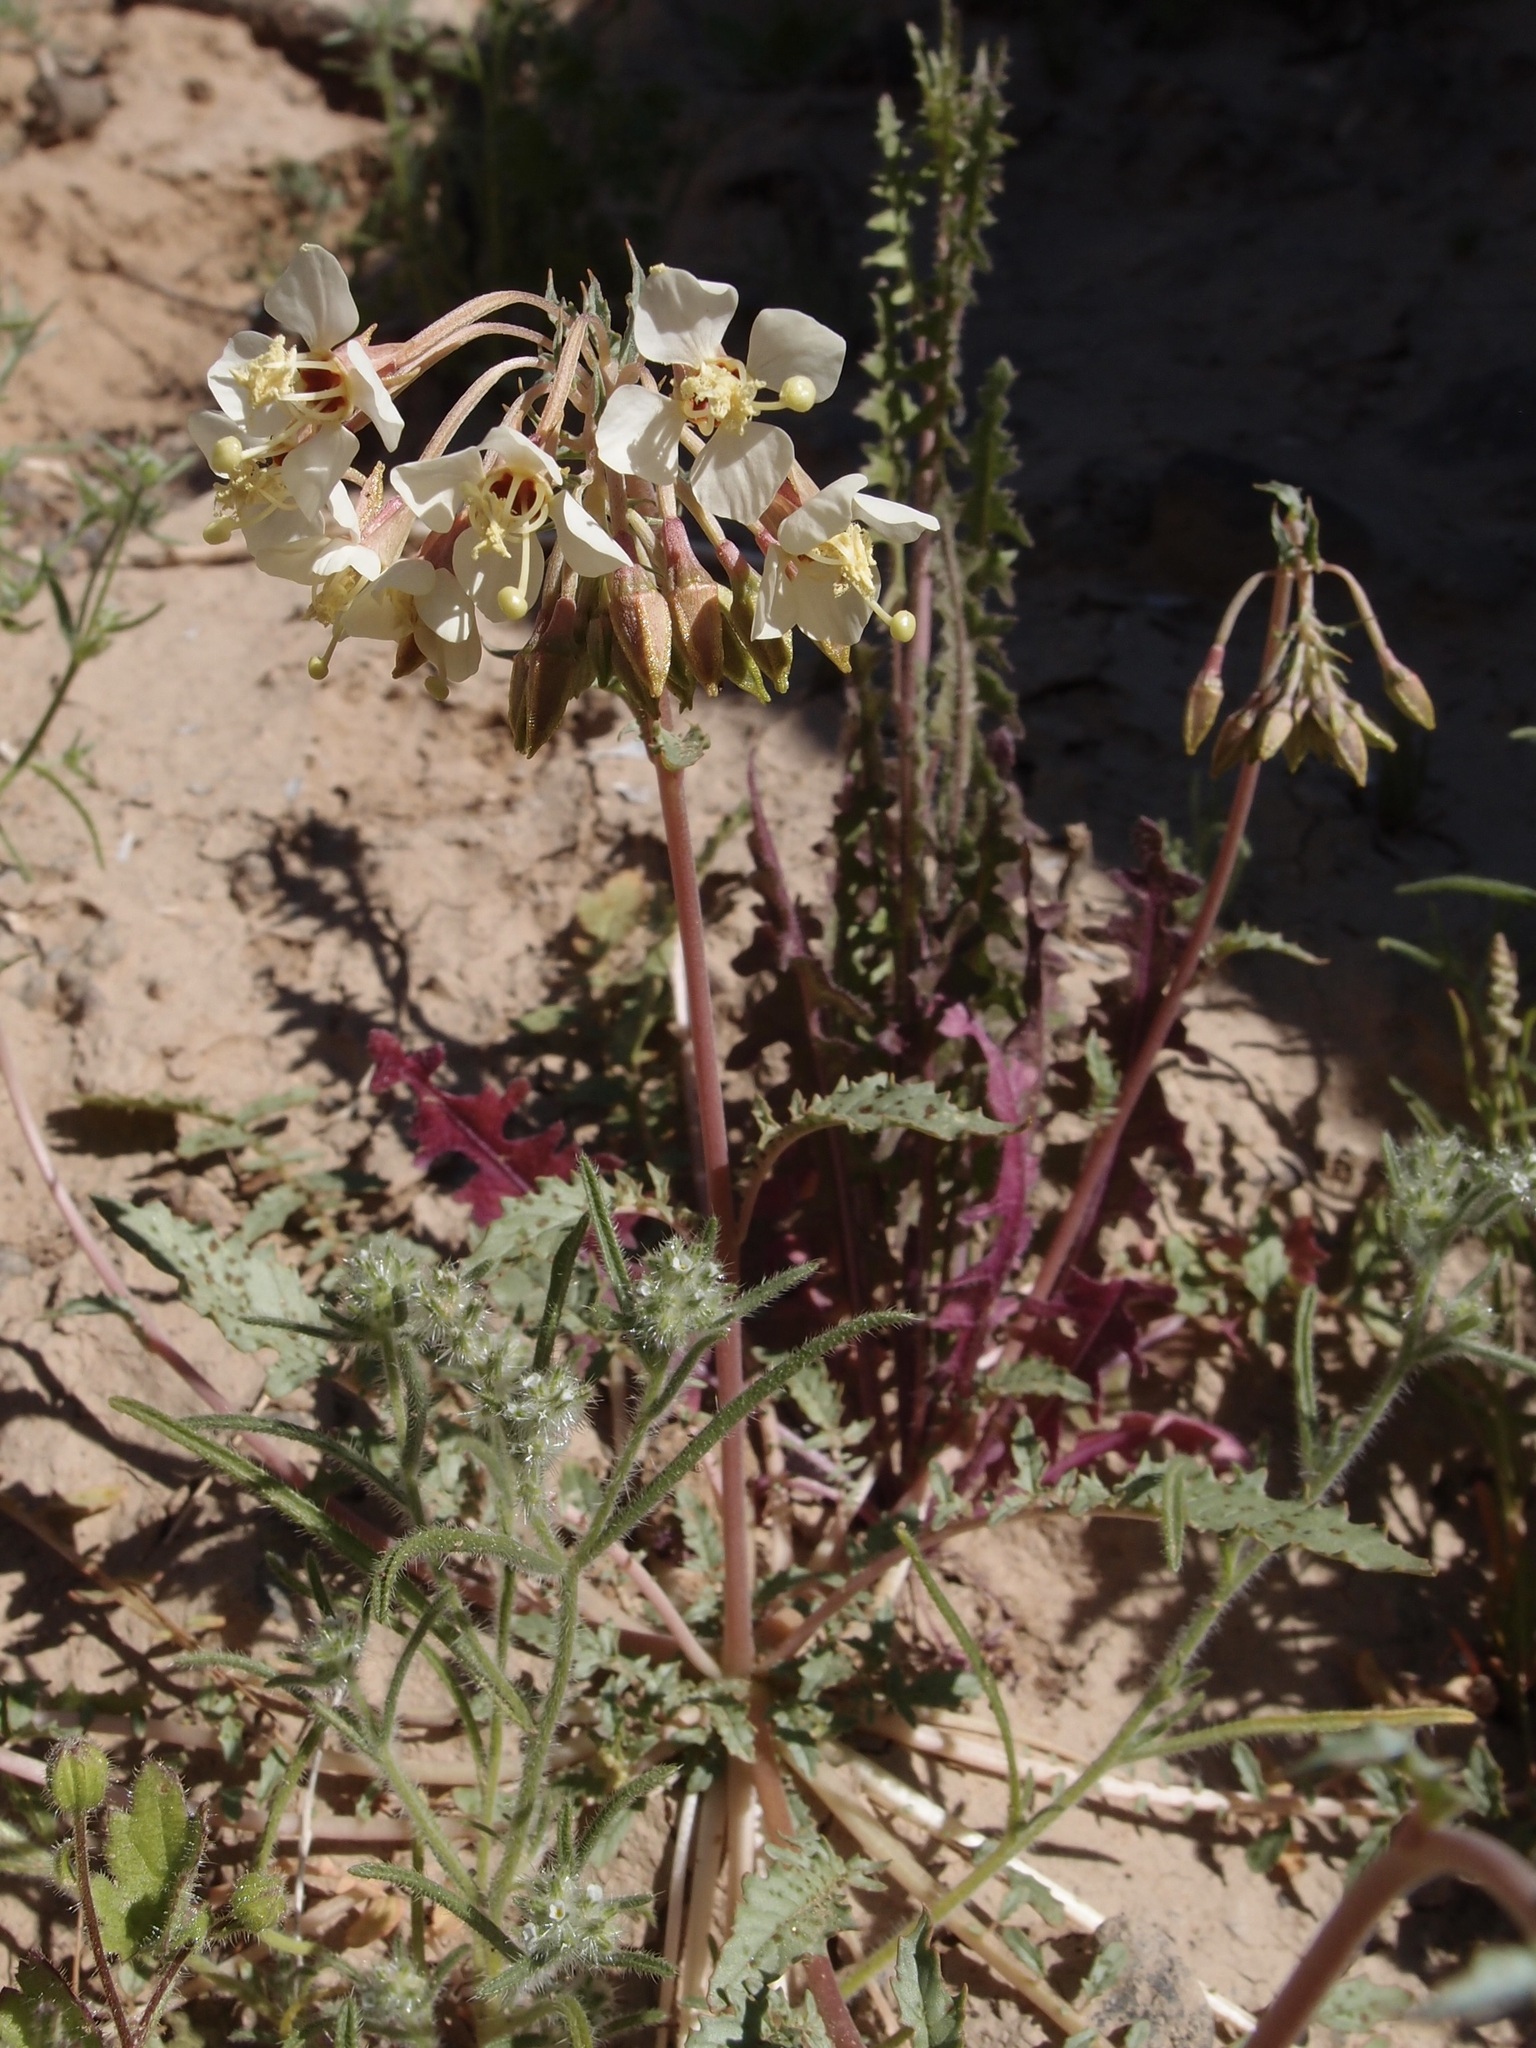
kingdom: Plantae
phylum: Tracheophyta
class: Magnoliopsida
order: Myrtales
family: Onagraceae
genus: Chylismia
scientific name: Chylismia claviformis
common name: Browneyes
